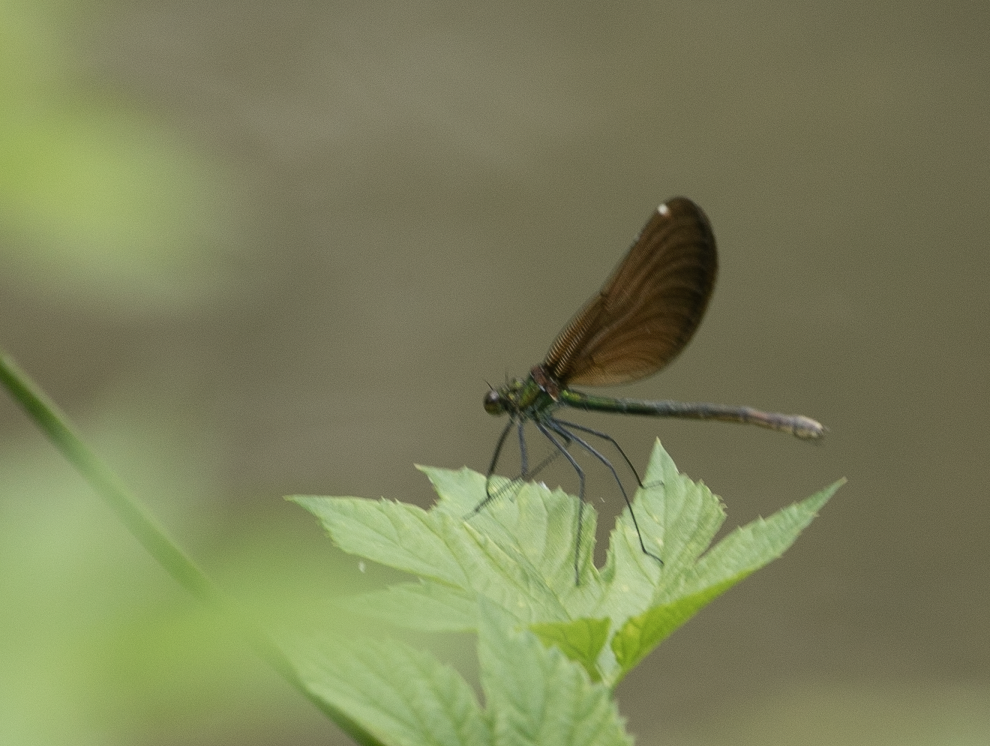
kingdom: Animalia
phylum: Arthropoda
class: Insecta
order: Odonata
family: Calopterygidae
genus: Calopteryx
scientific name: Calopteryx virgo
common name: Beautiful demoiselle
